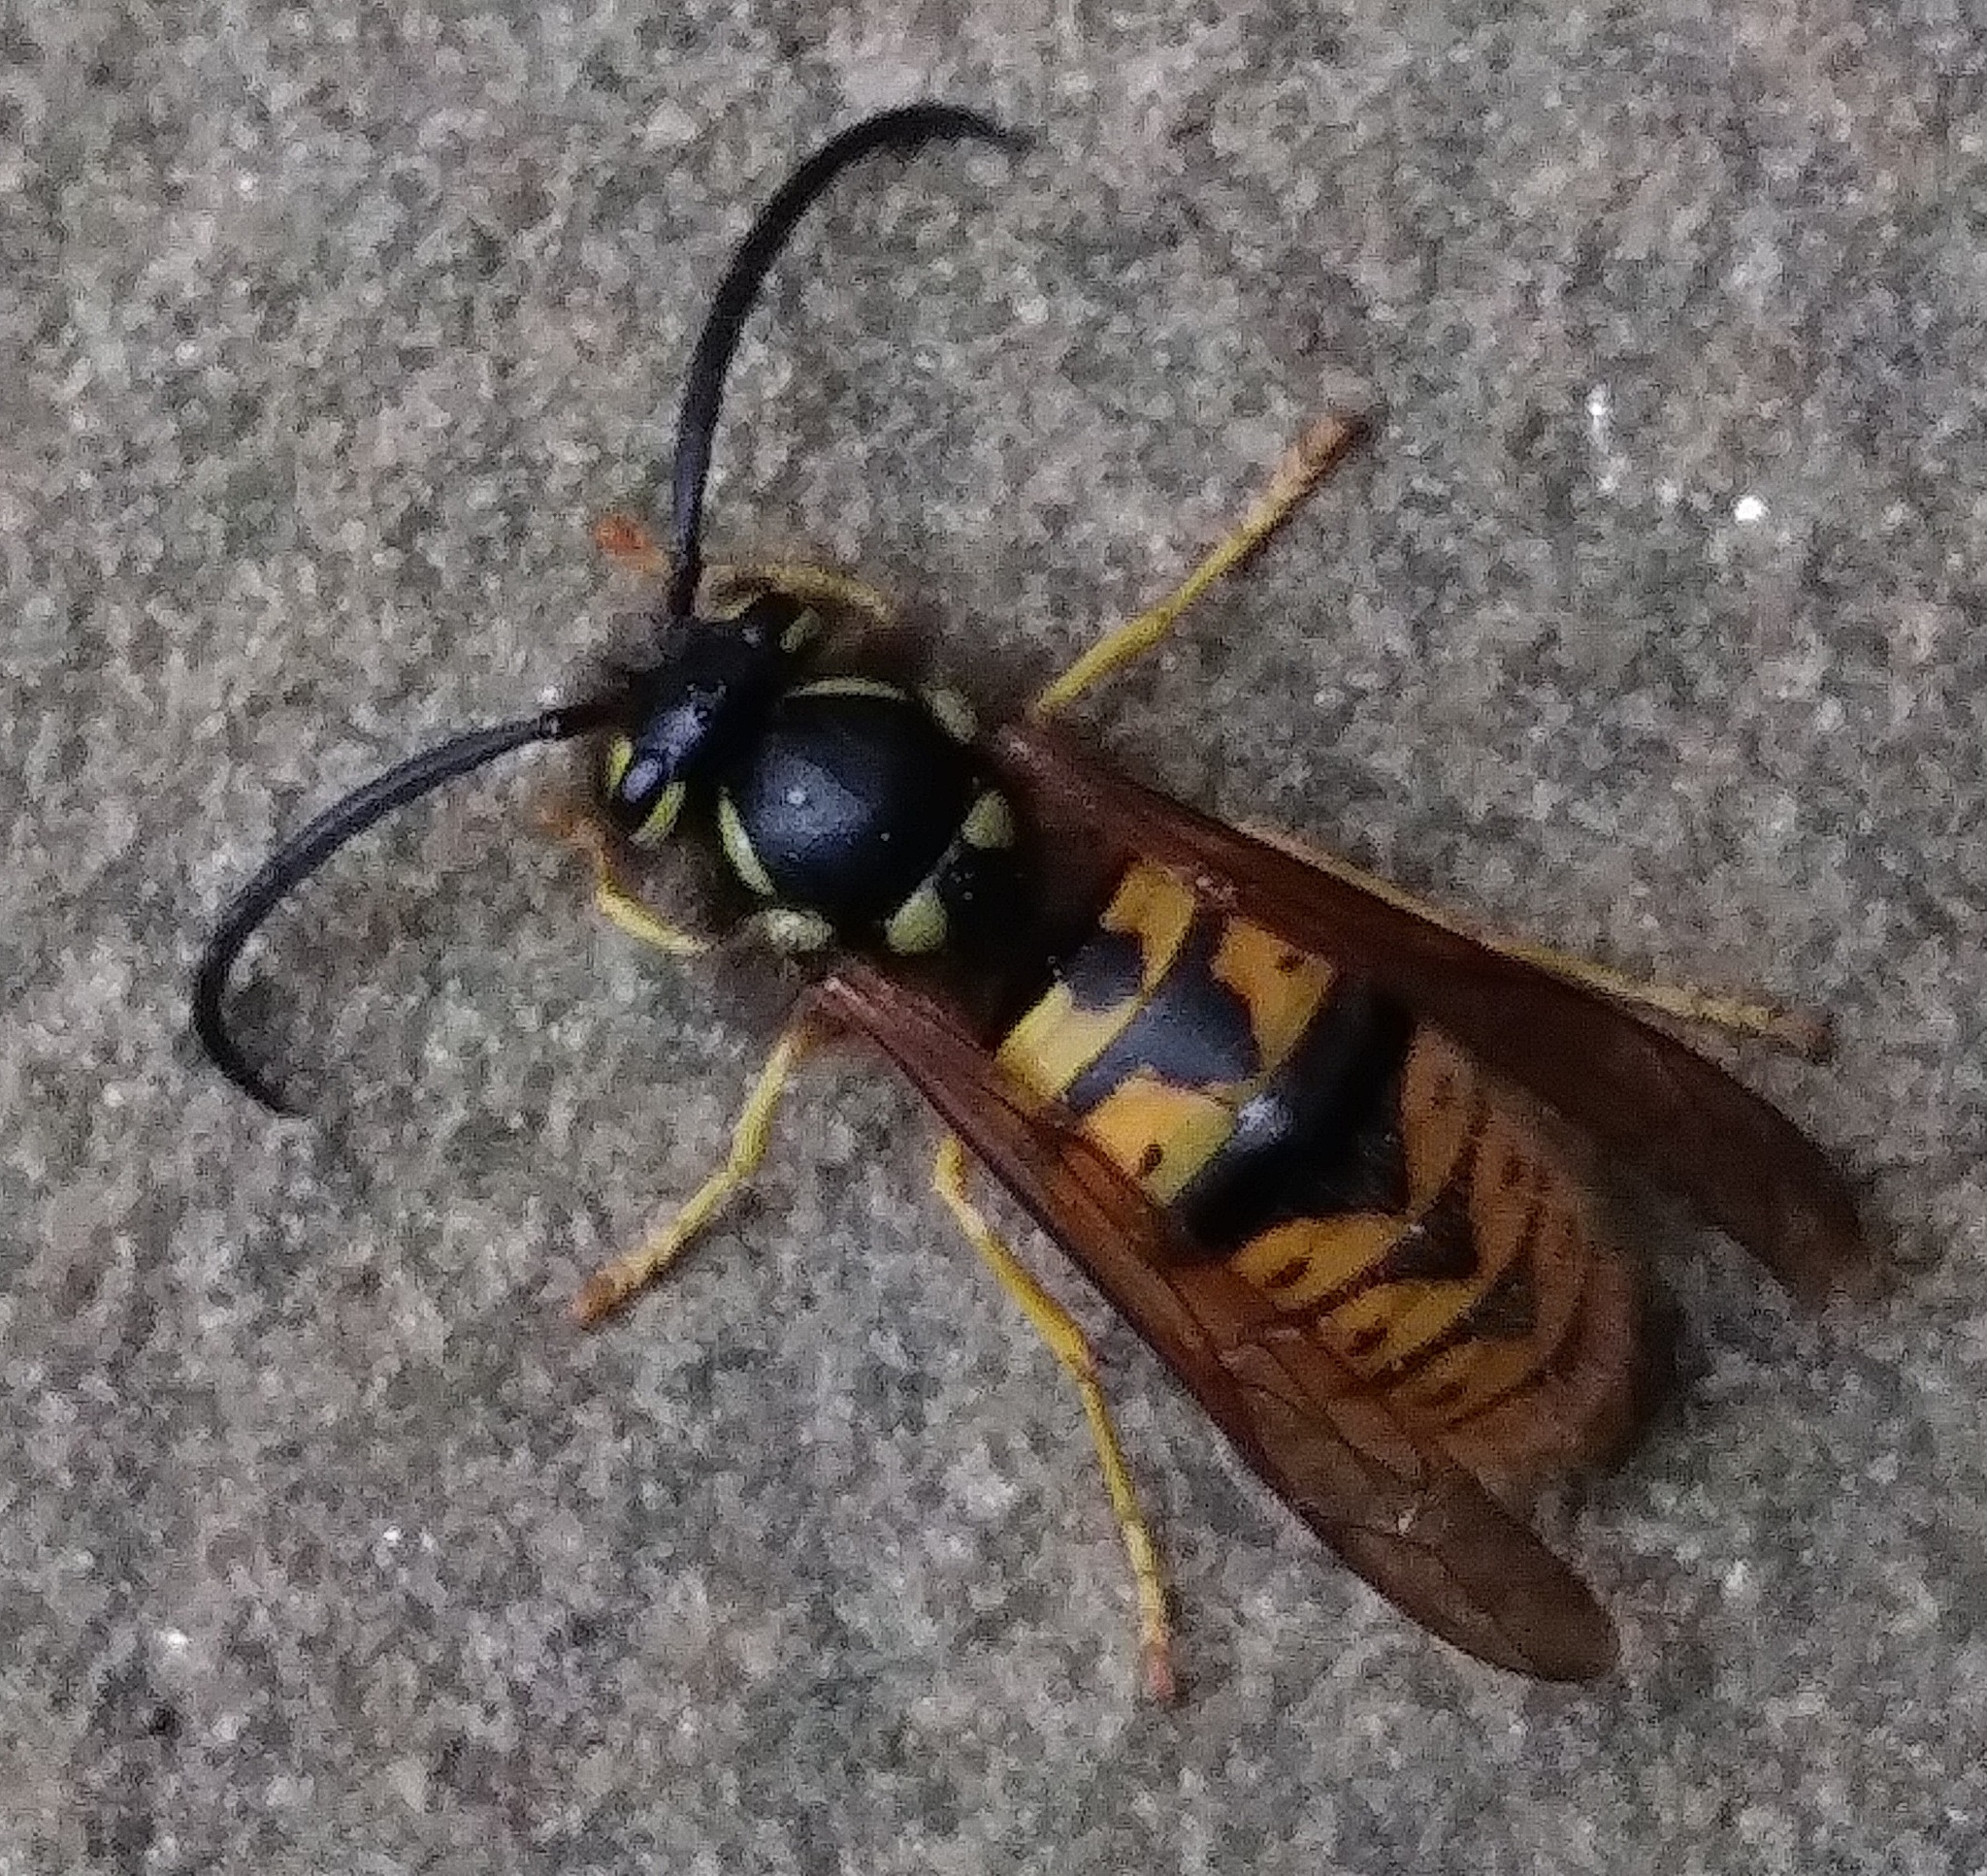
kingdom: Animalia
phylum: Arthropoda
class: Insecta
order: Hymenoptera
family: Vespidae
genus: Vespula
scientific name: Vespula germanica
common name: German wasp
